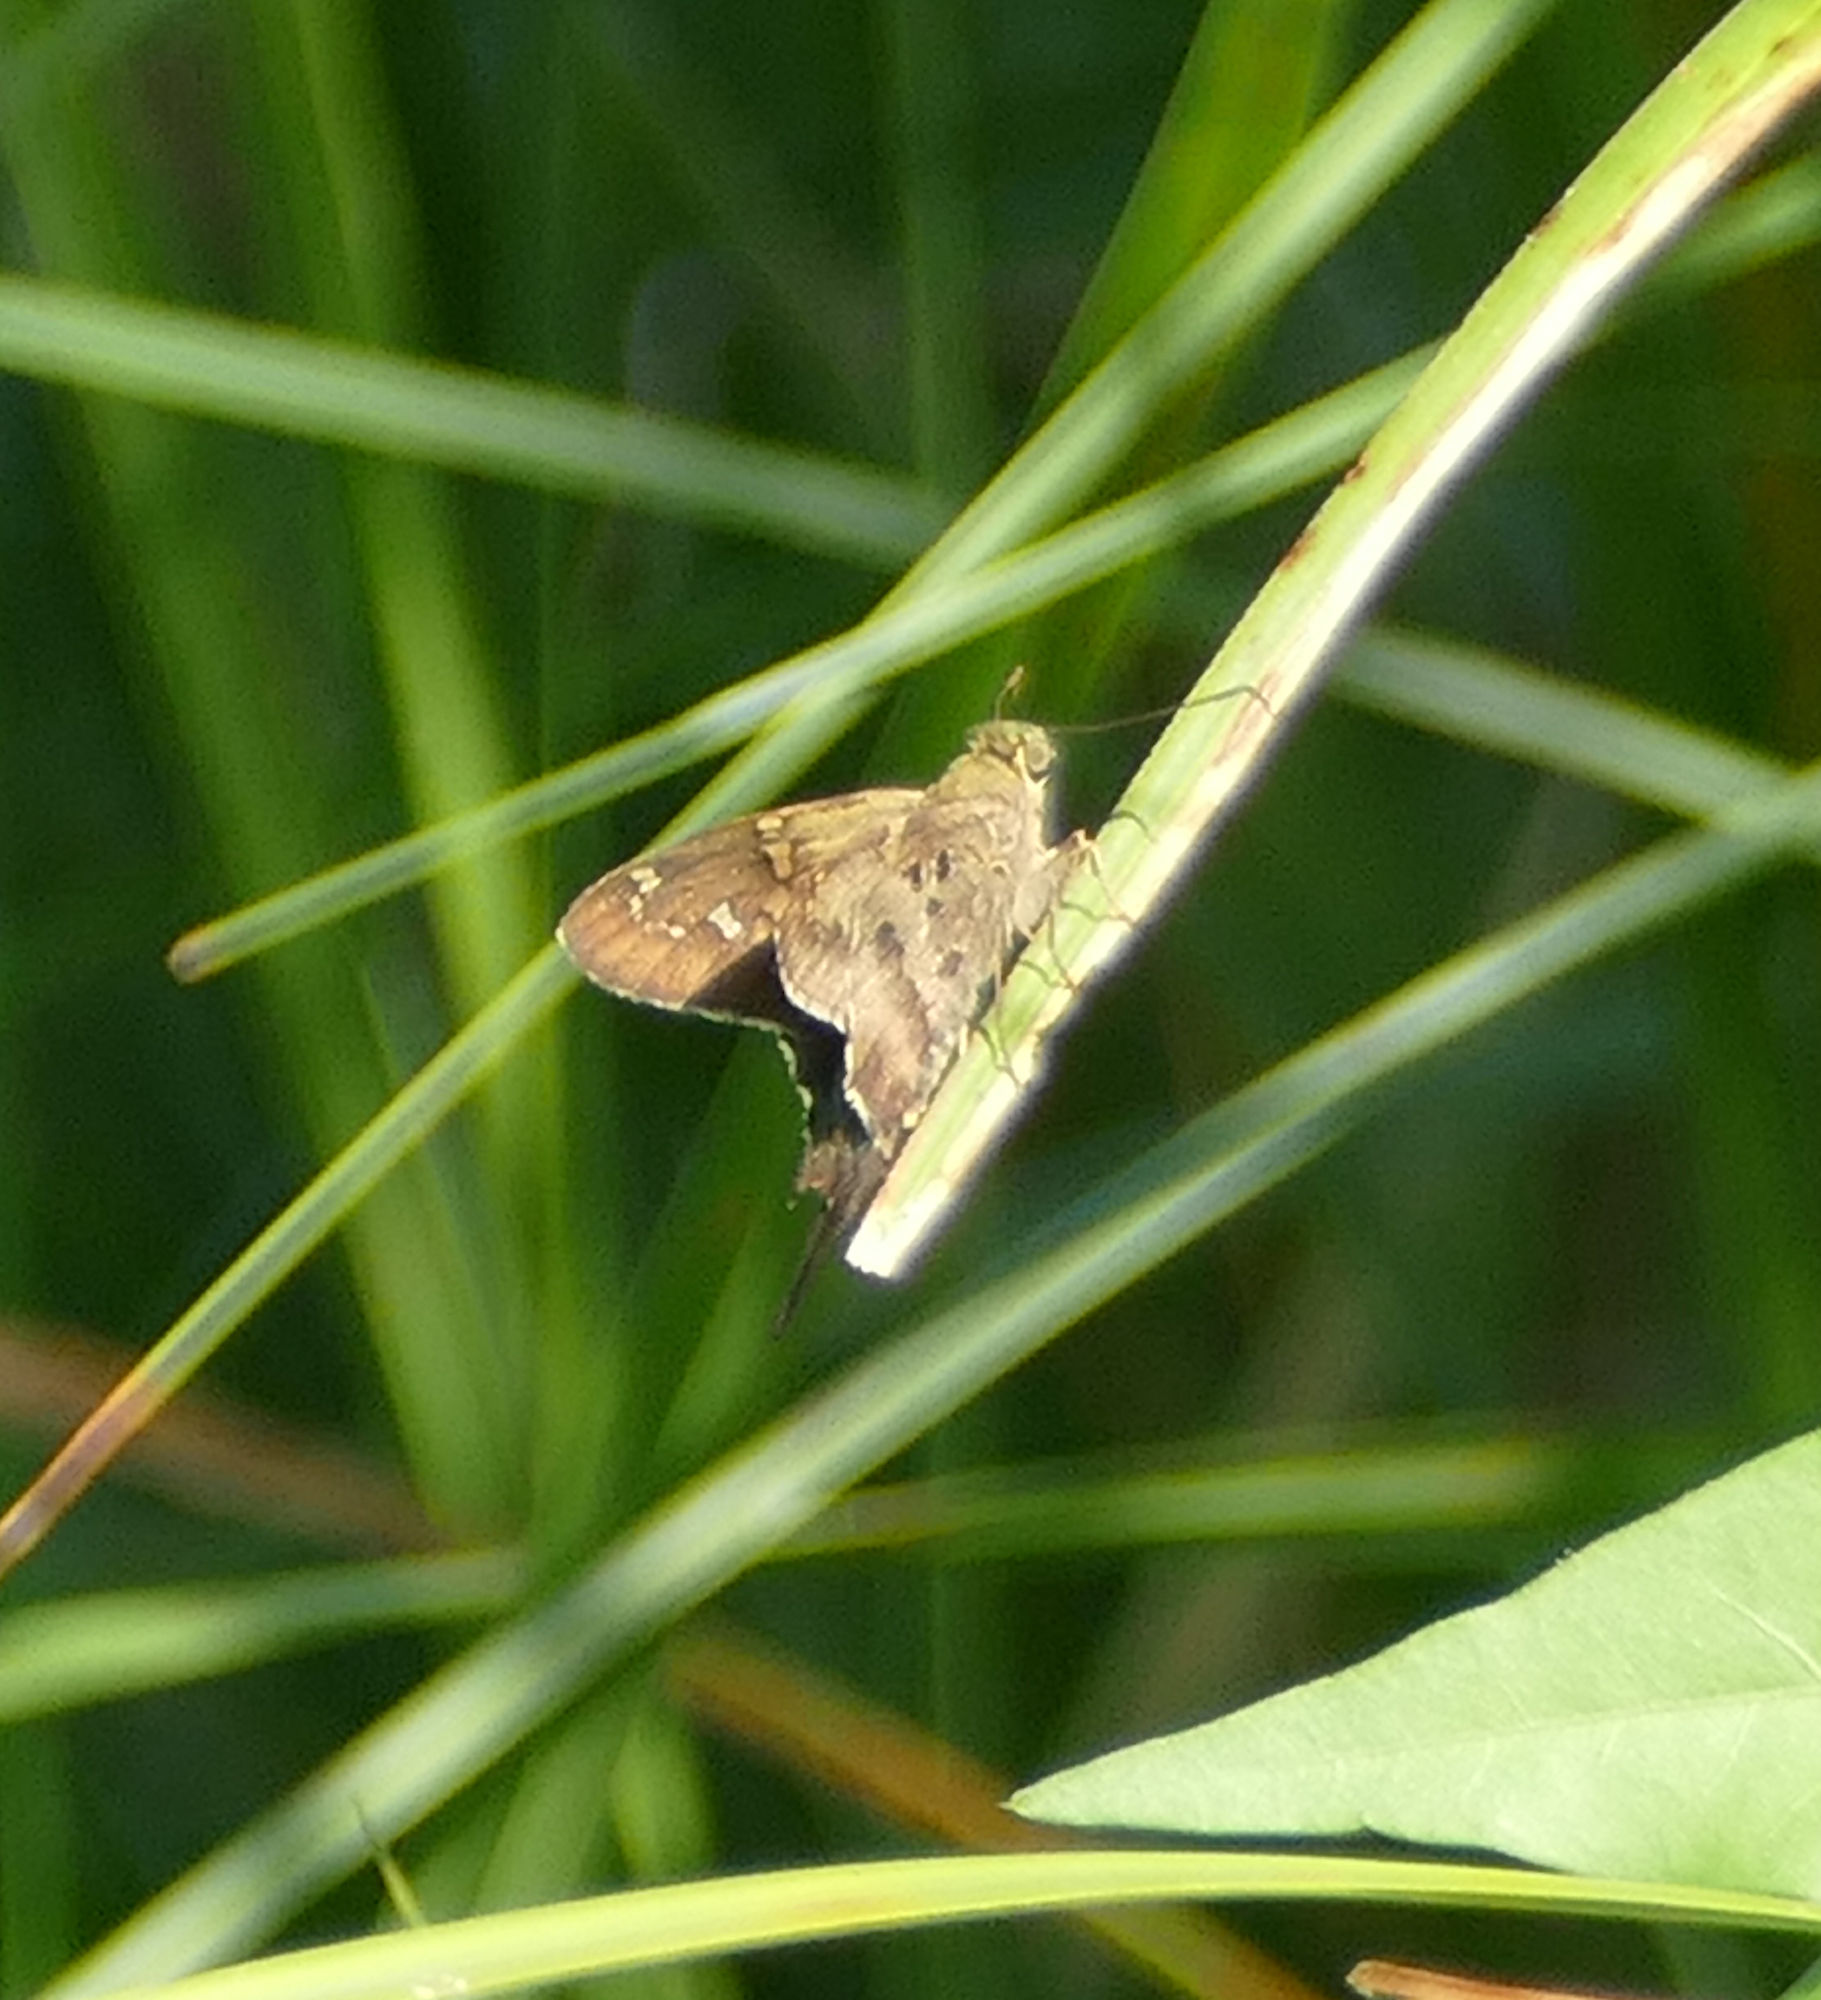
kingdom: Animalia
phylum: Arthropoda
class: Insecta
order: Lepidoptera
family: Hesperiidae
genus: Urbanus
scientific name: Urbanus proteus
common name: Long-tailed skipper
